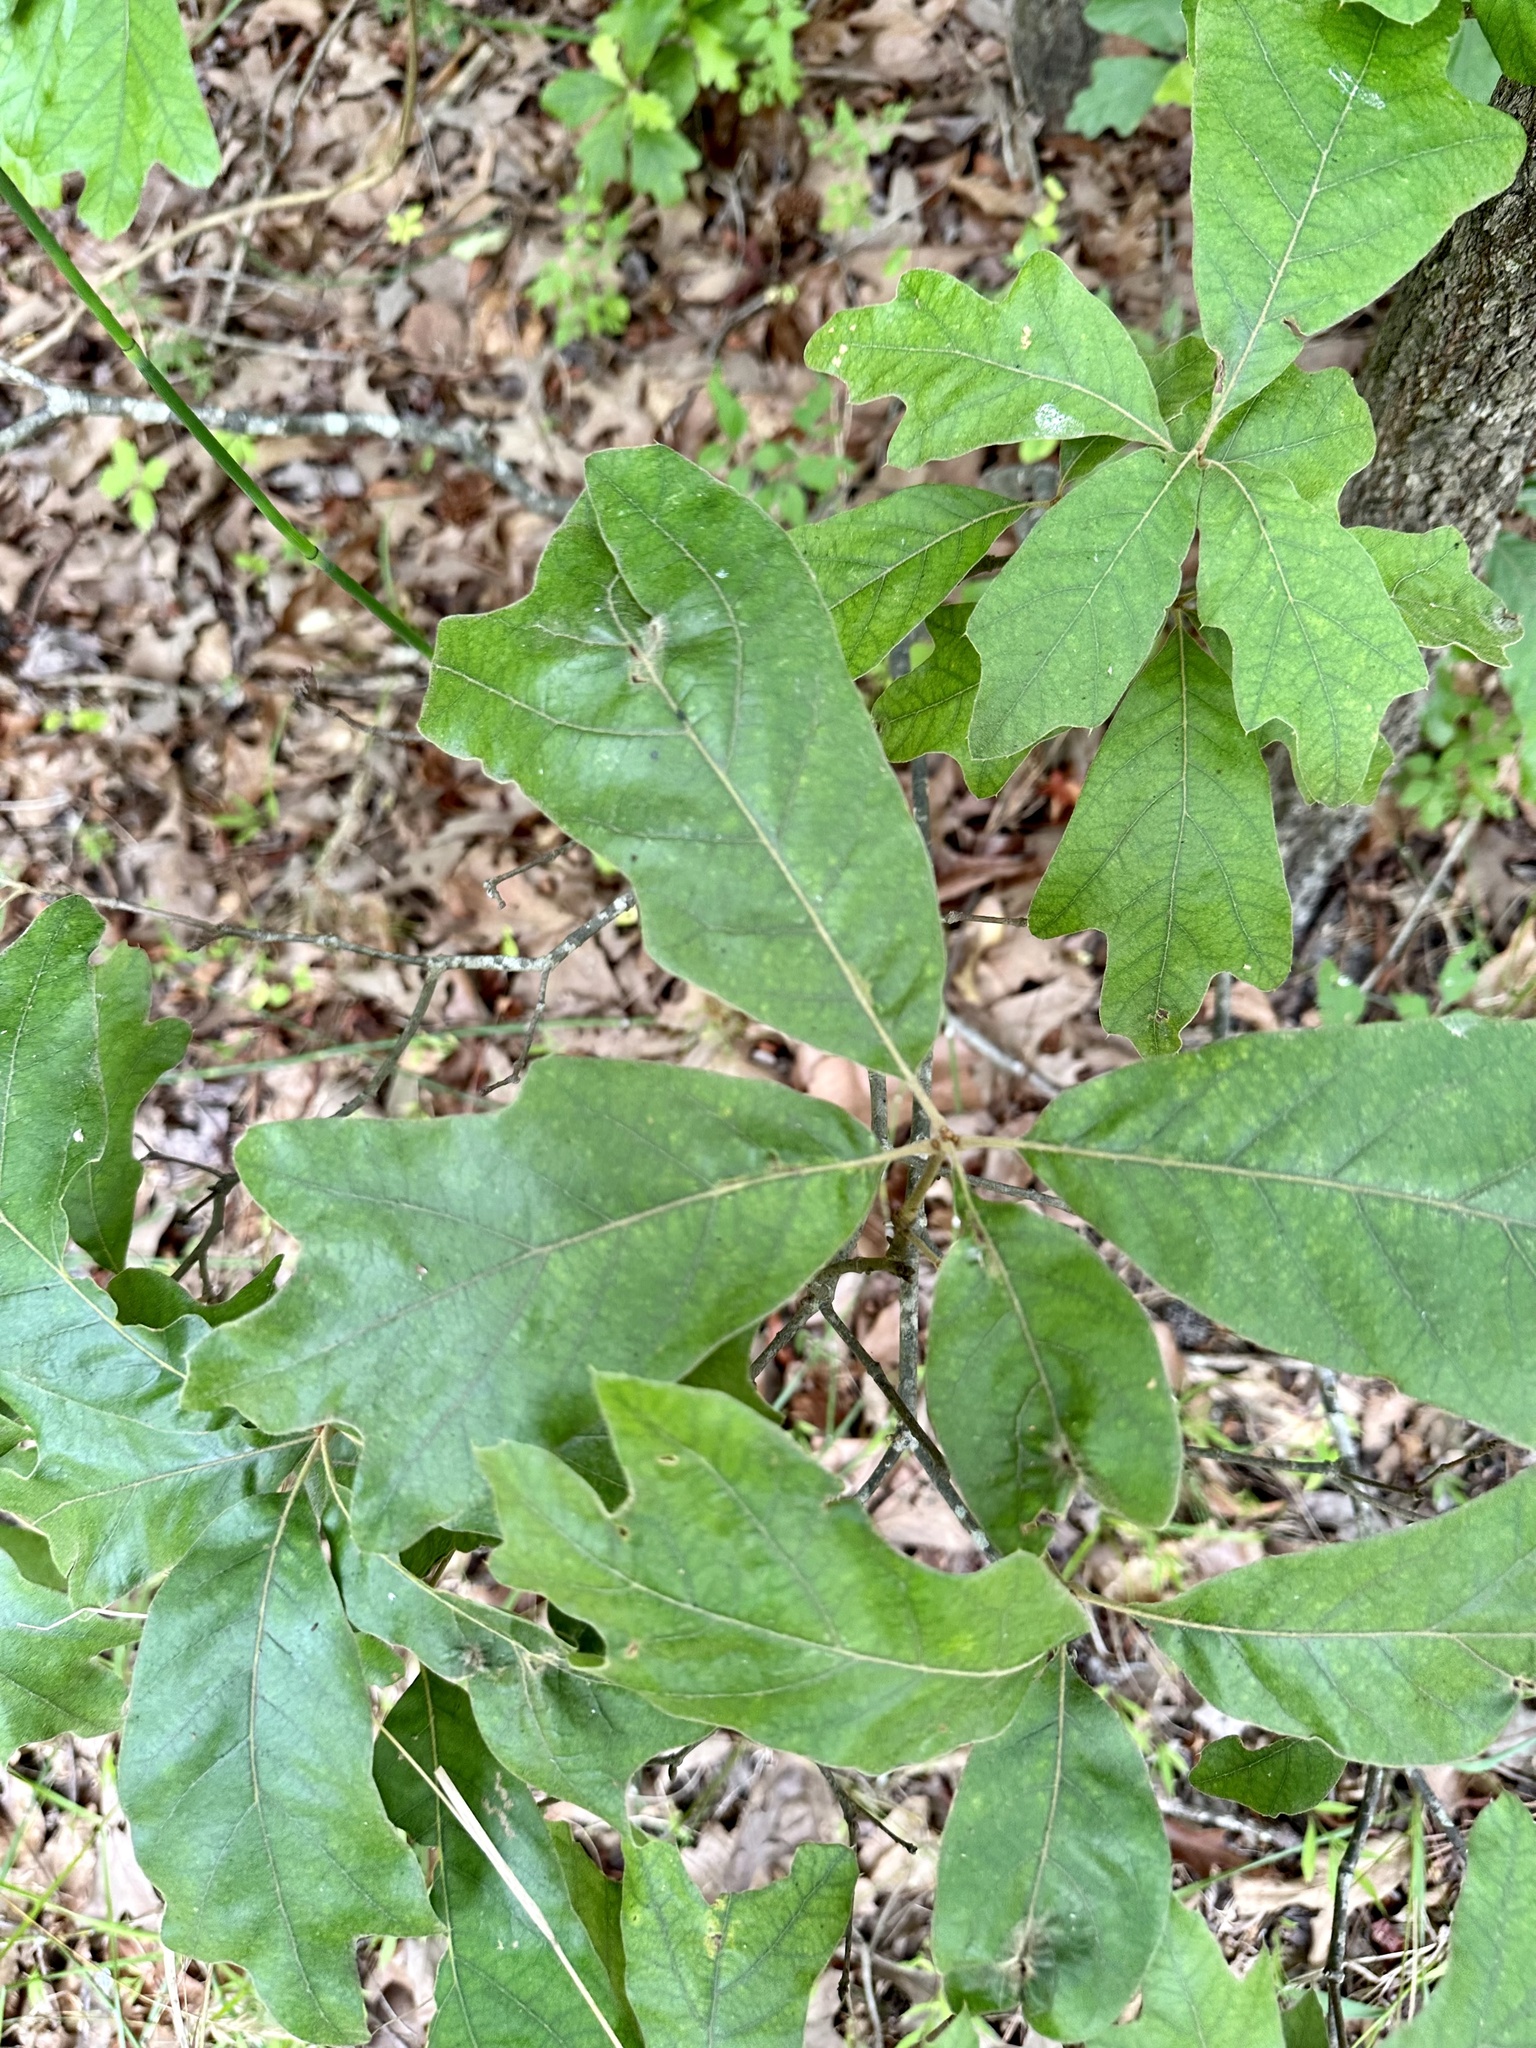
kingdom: Plantae
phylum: Tracheophyta
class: Magnoliopsida
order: Fagales
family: Fagaceae
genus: Quercus
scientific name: Quercus falcata
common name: Southern red oak
